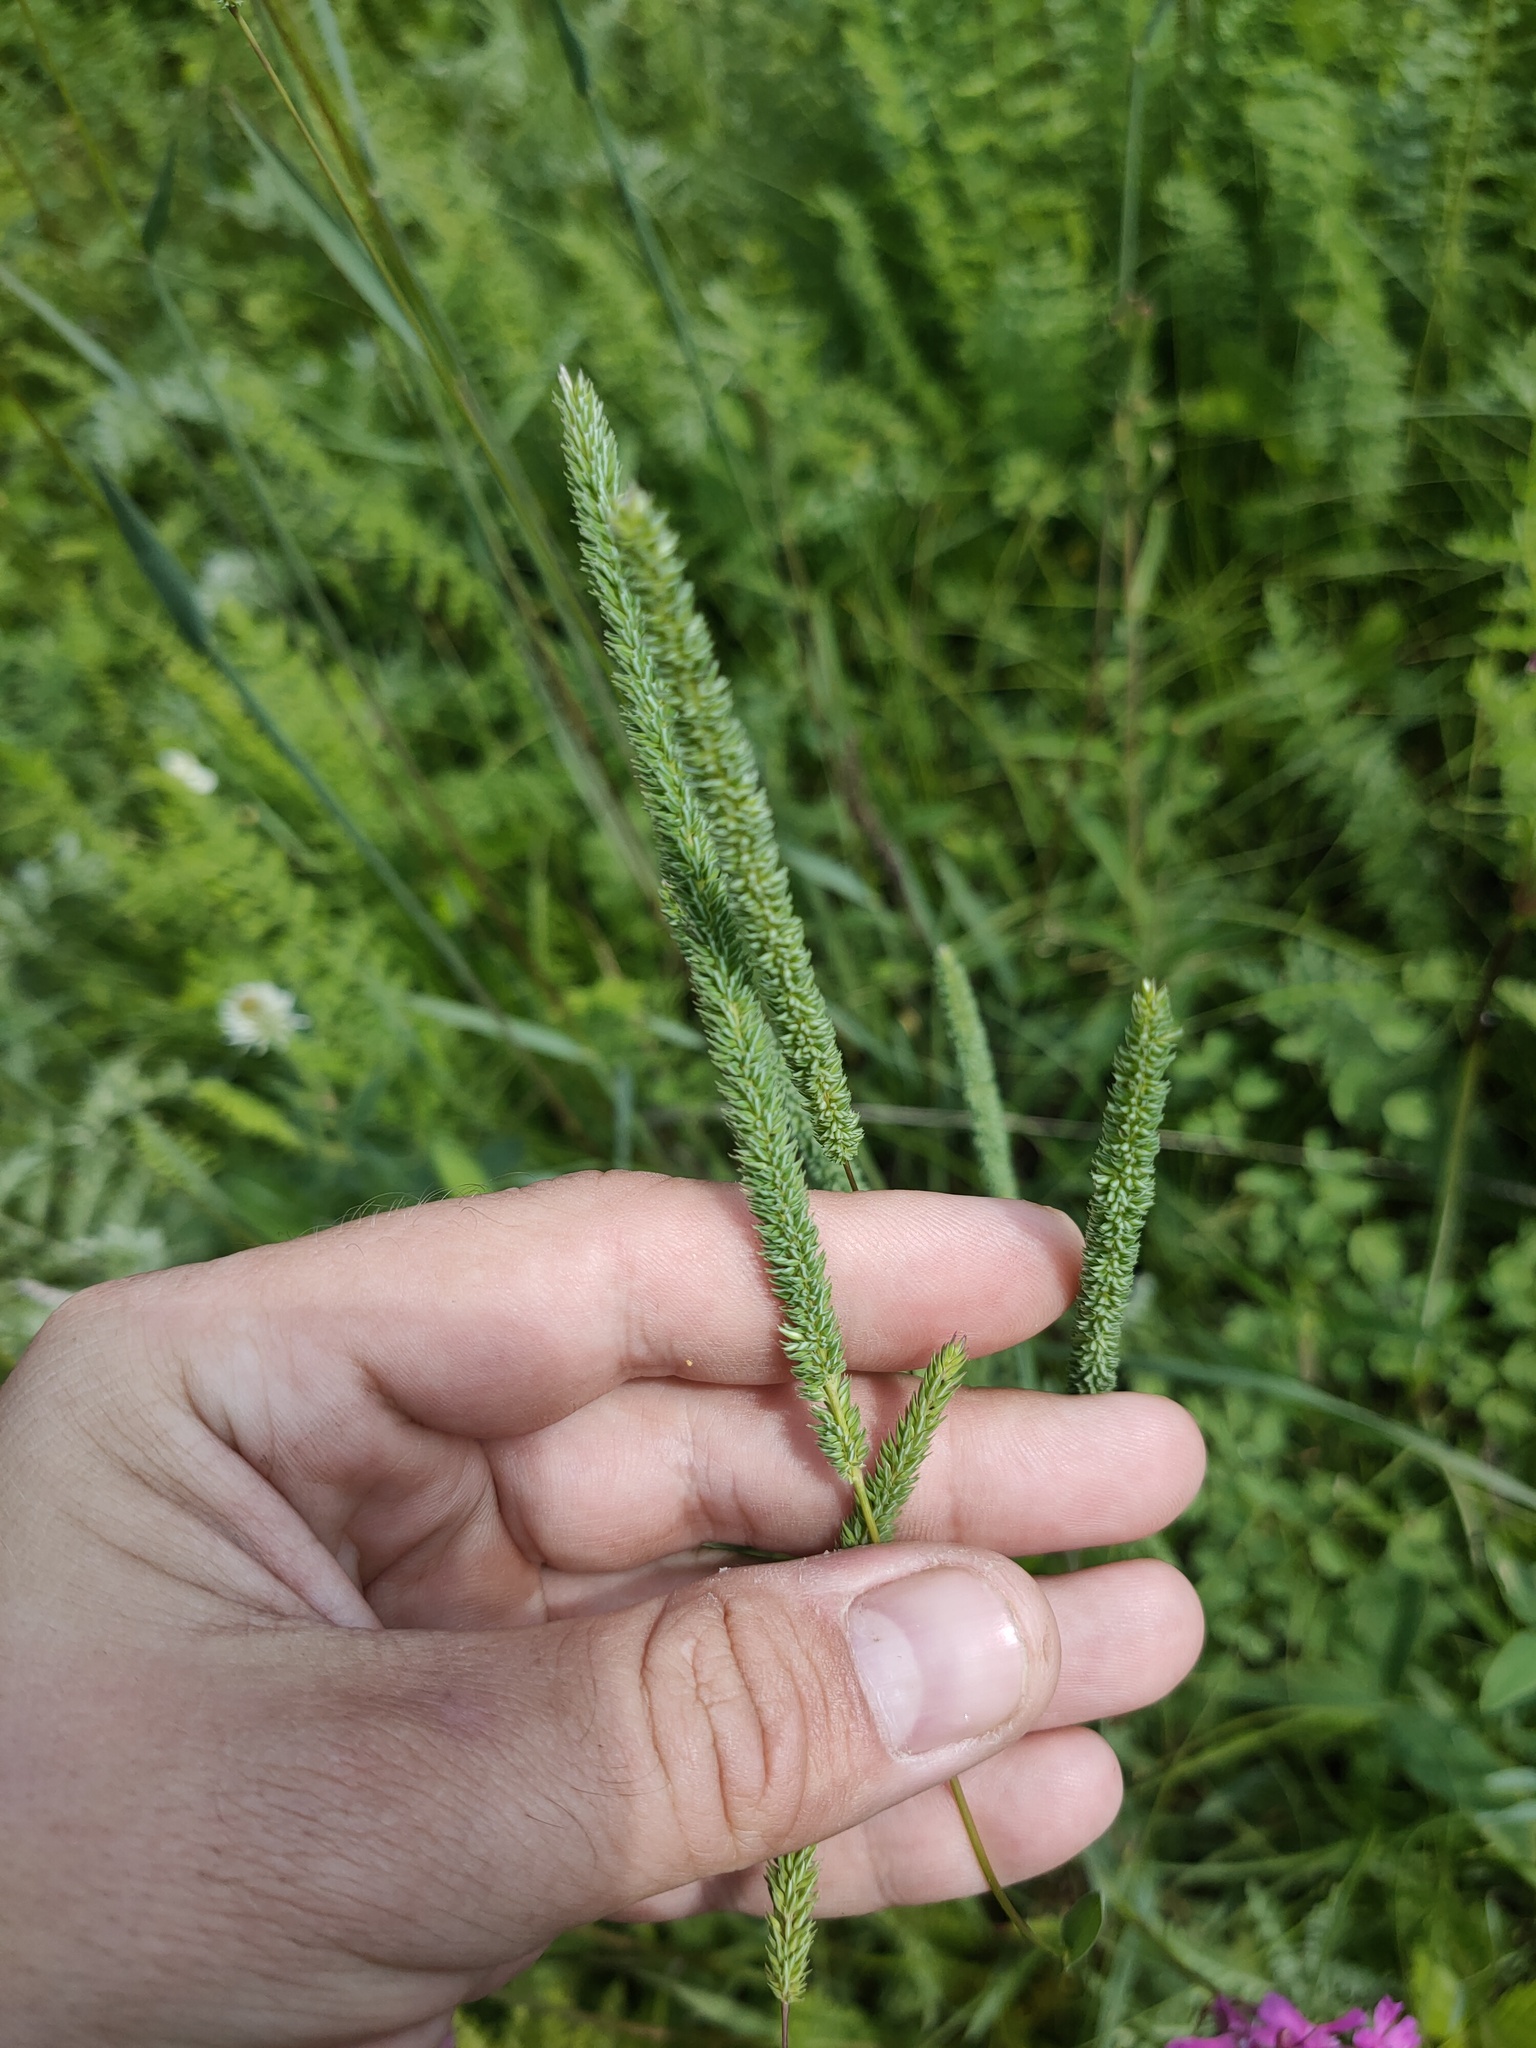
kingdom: Plantae
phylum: Tracheophyta
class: Liliopsida
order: Poales
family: Poaceae
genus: Phleum
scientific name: Phleum phleoides
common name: Purple-stem cat's-tail
